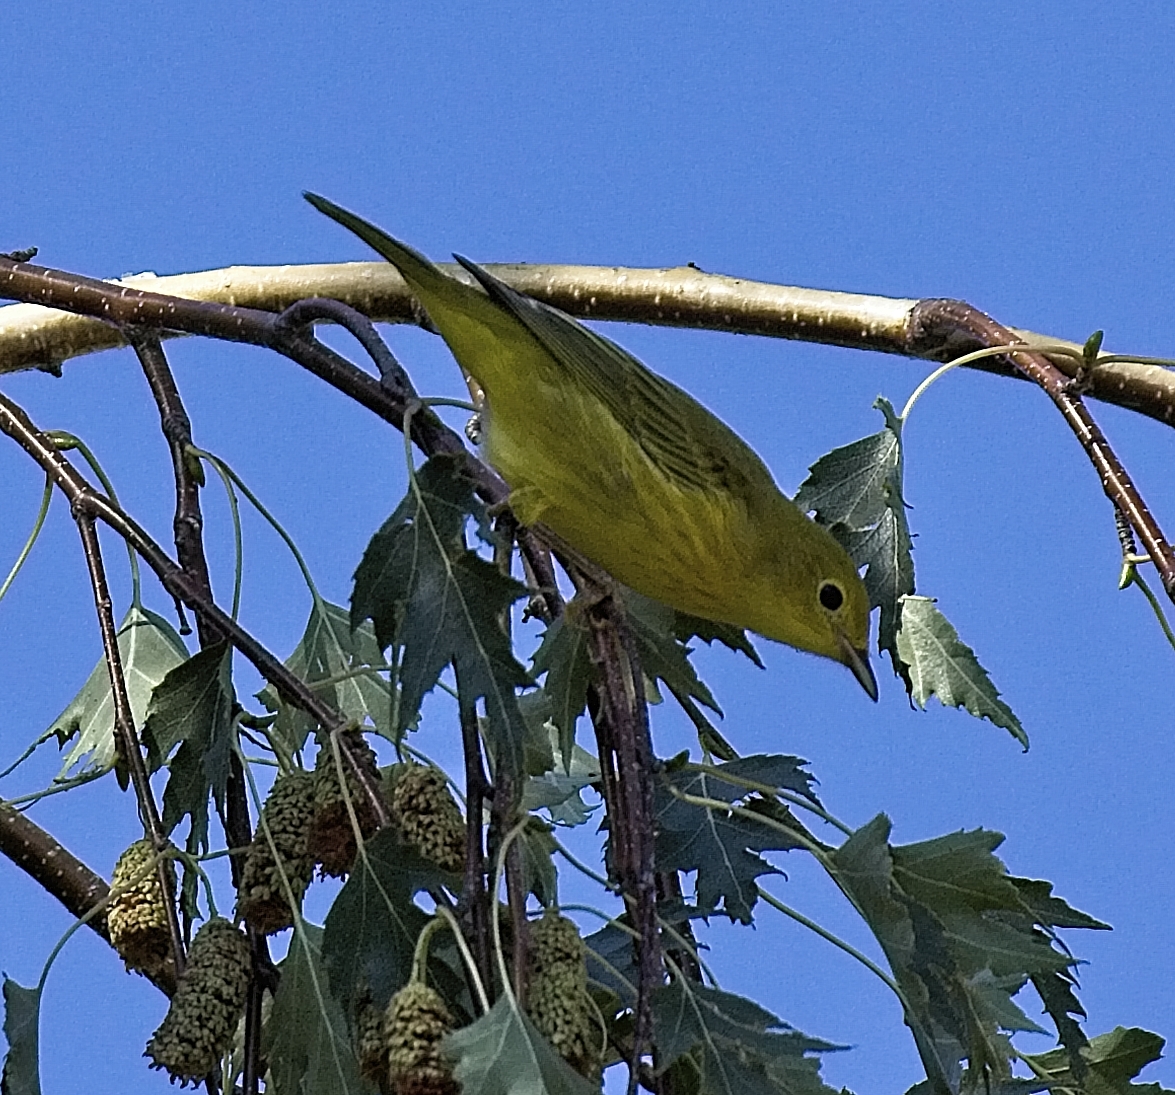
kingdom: Animalia
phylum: Chordata
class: Aves
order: Passeriformes
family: Parulidae
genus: Setophaga
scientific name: Setophaga petechia
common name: Yellow warbler
